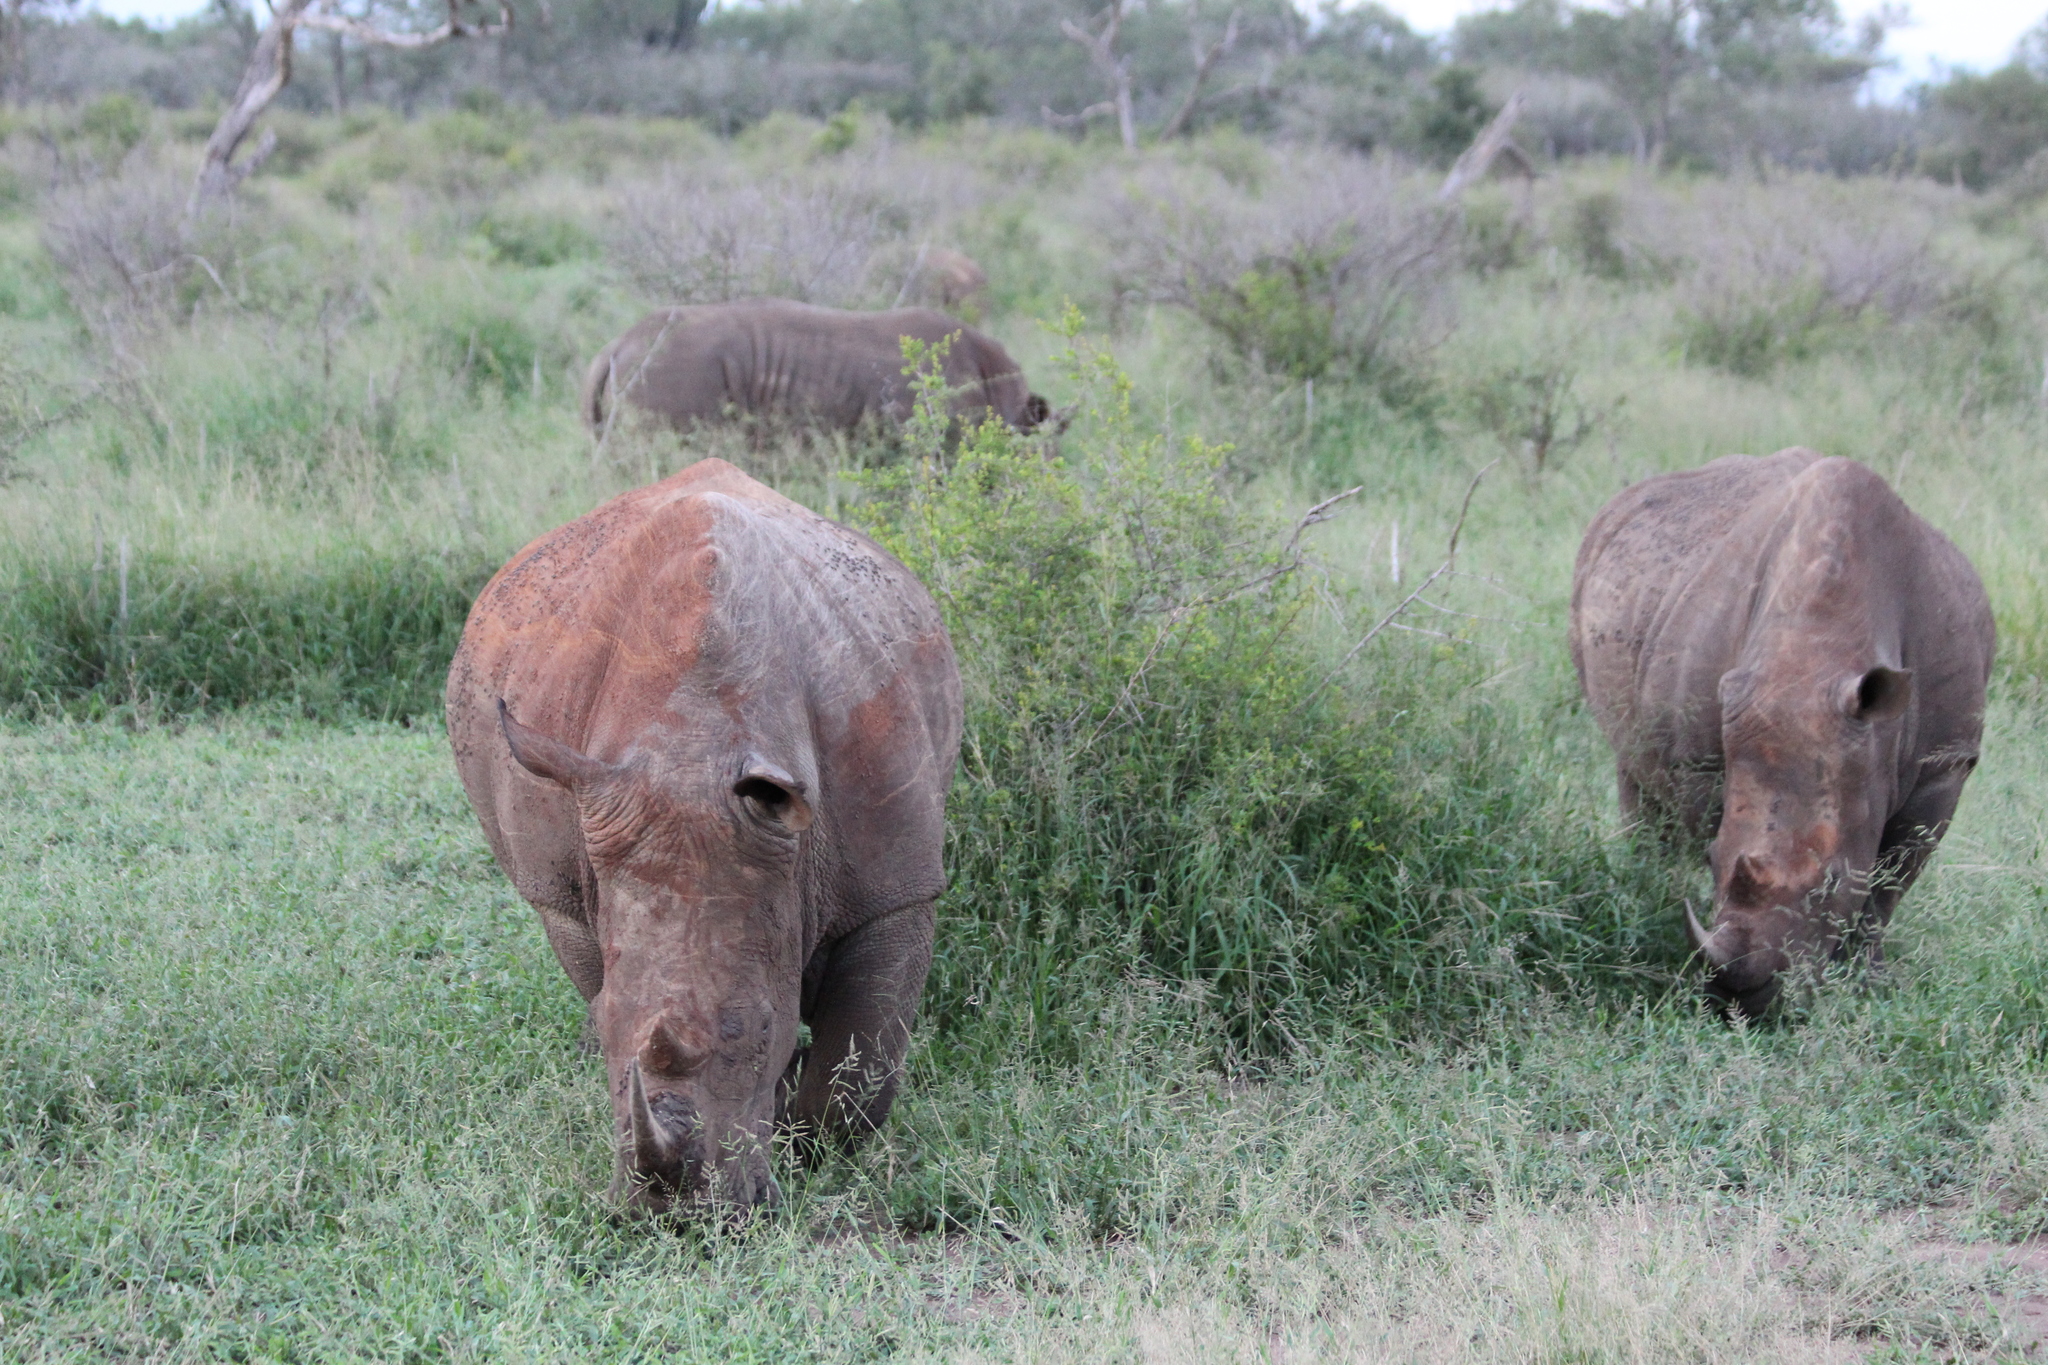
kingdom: Animalia
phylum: Chordata
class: Mammalia
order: Perissodactyla
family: Rhinocerotidae
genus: Ceratotherium
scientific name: Ceratotherium simum
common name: White rhinoceros
